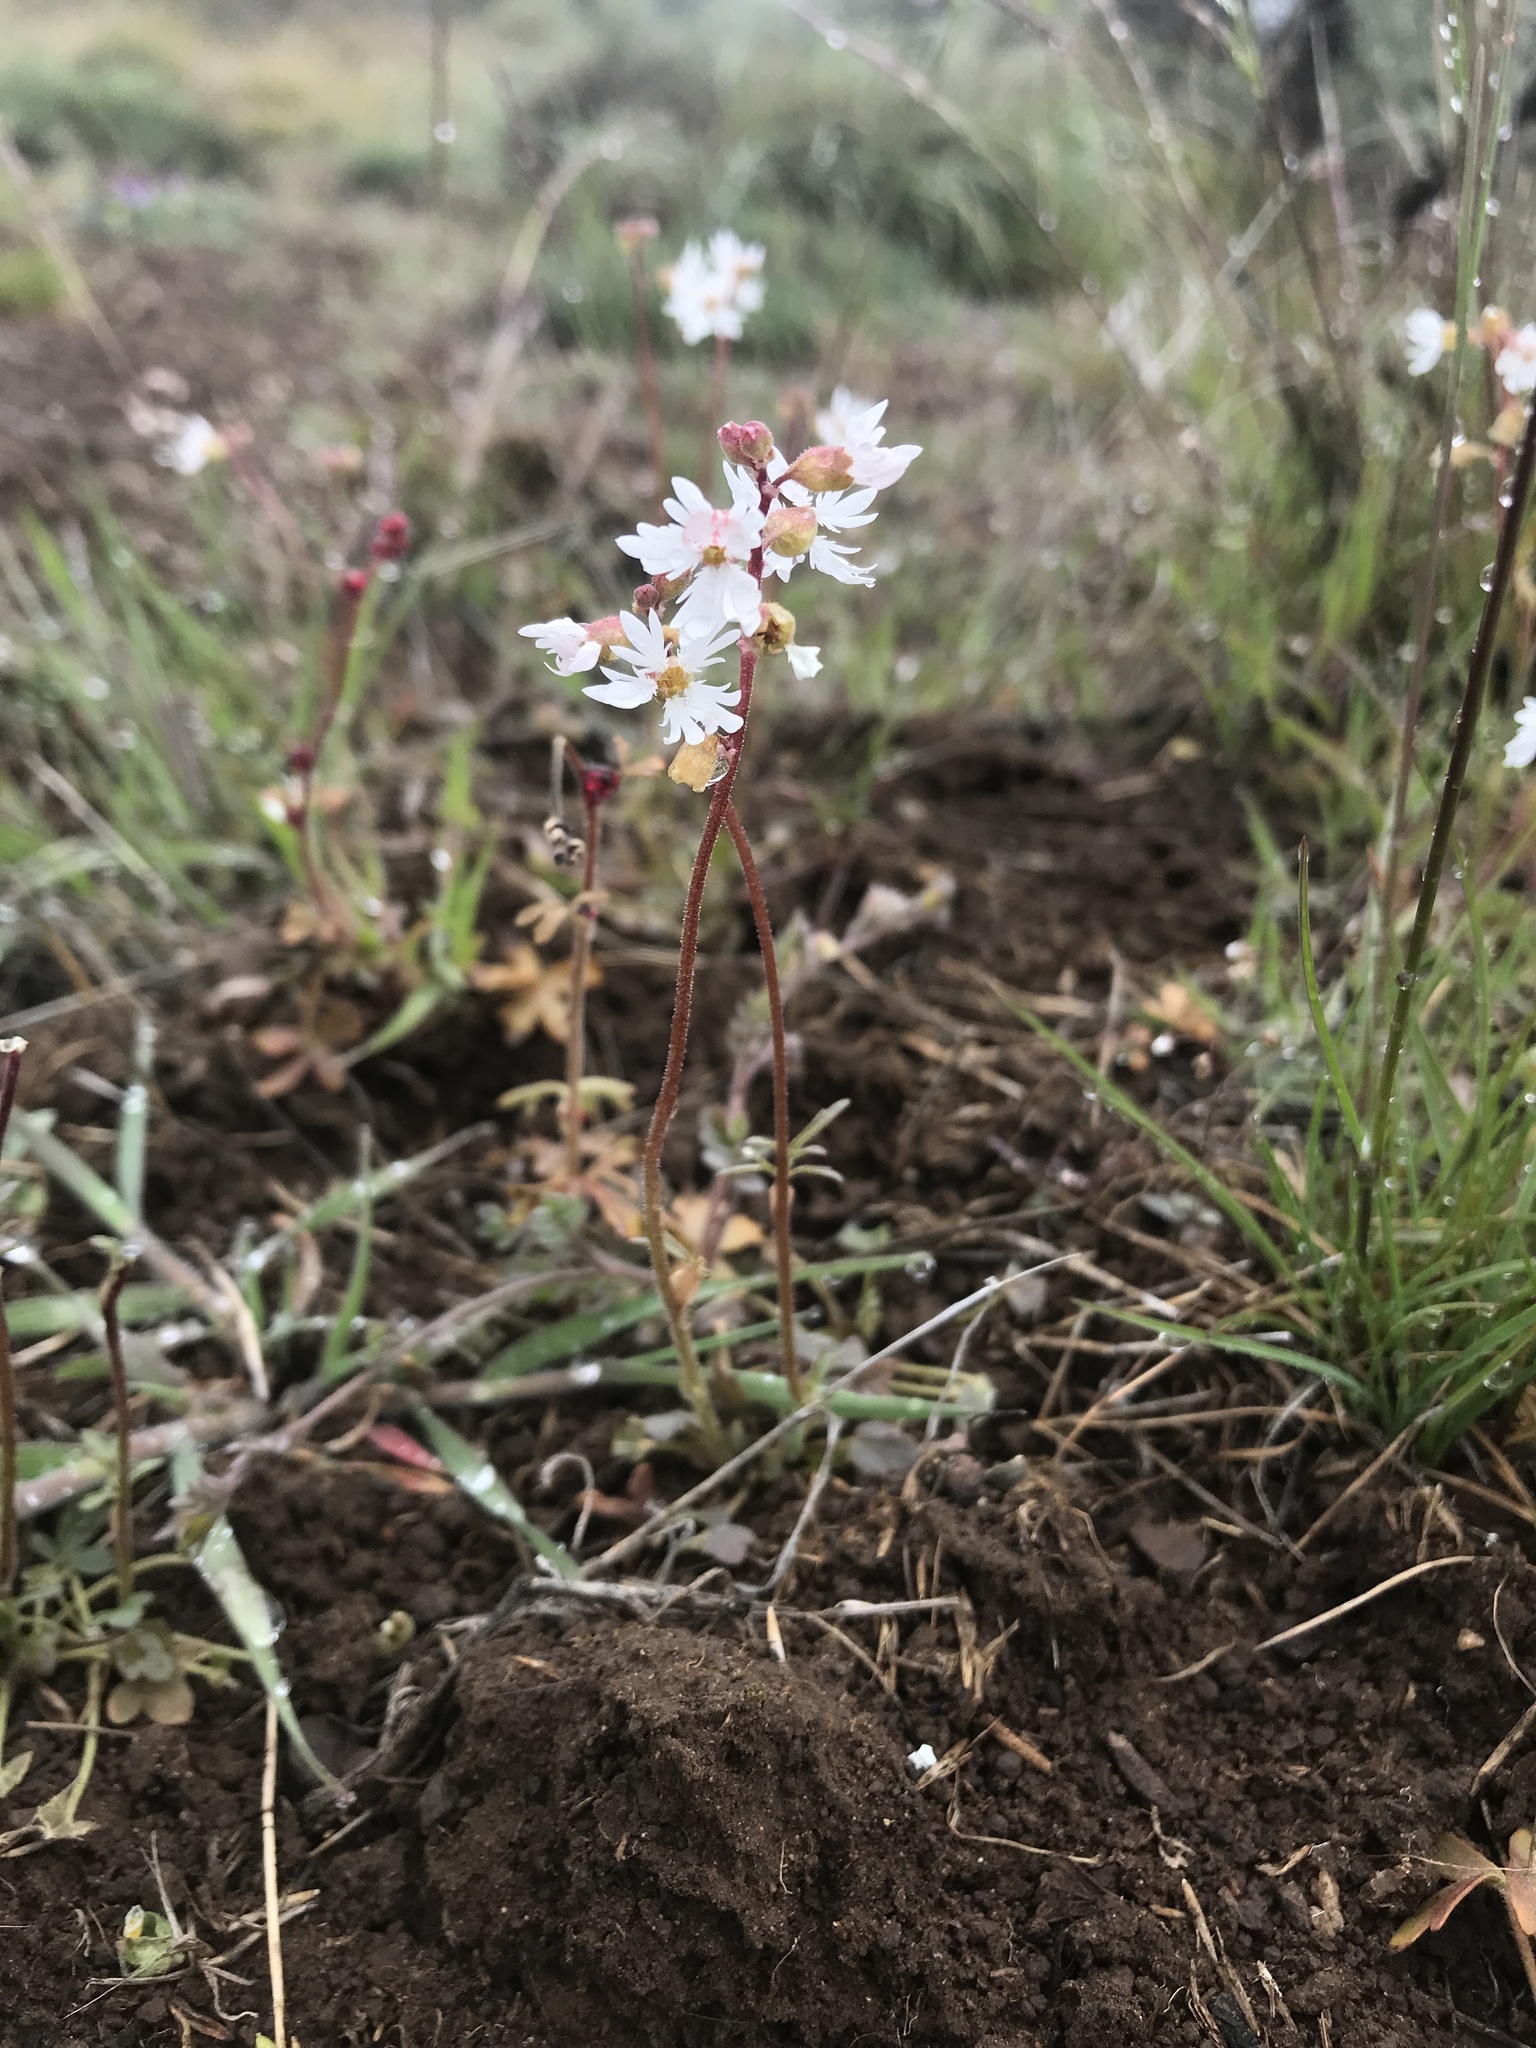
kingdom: Plantae
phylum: Tracheophyta
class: Magnoliopsida
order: Saxifragales
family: Saxifragaceae
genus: Lithophragma
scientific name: Lithophragma parviflorum
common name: Small-flowered fringe-cup
